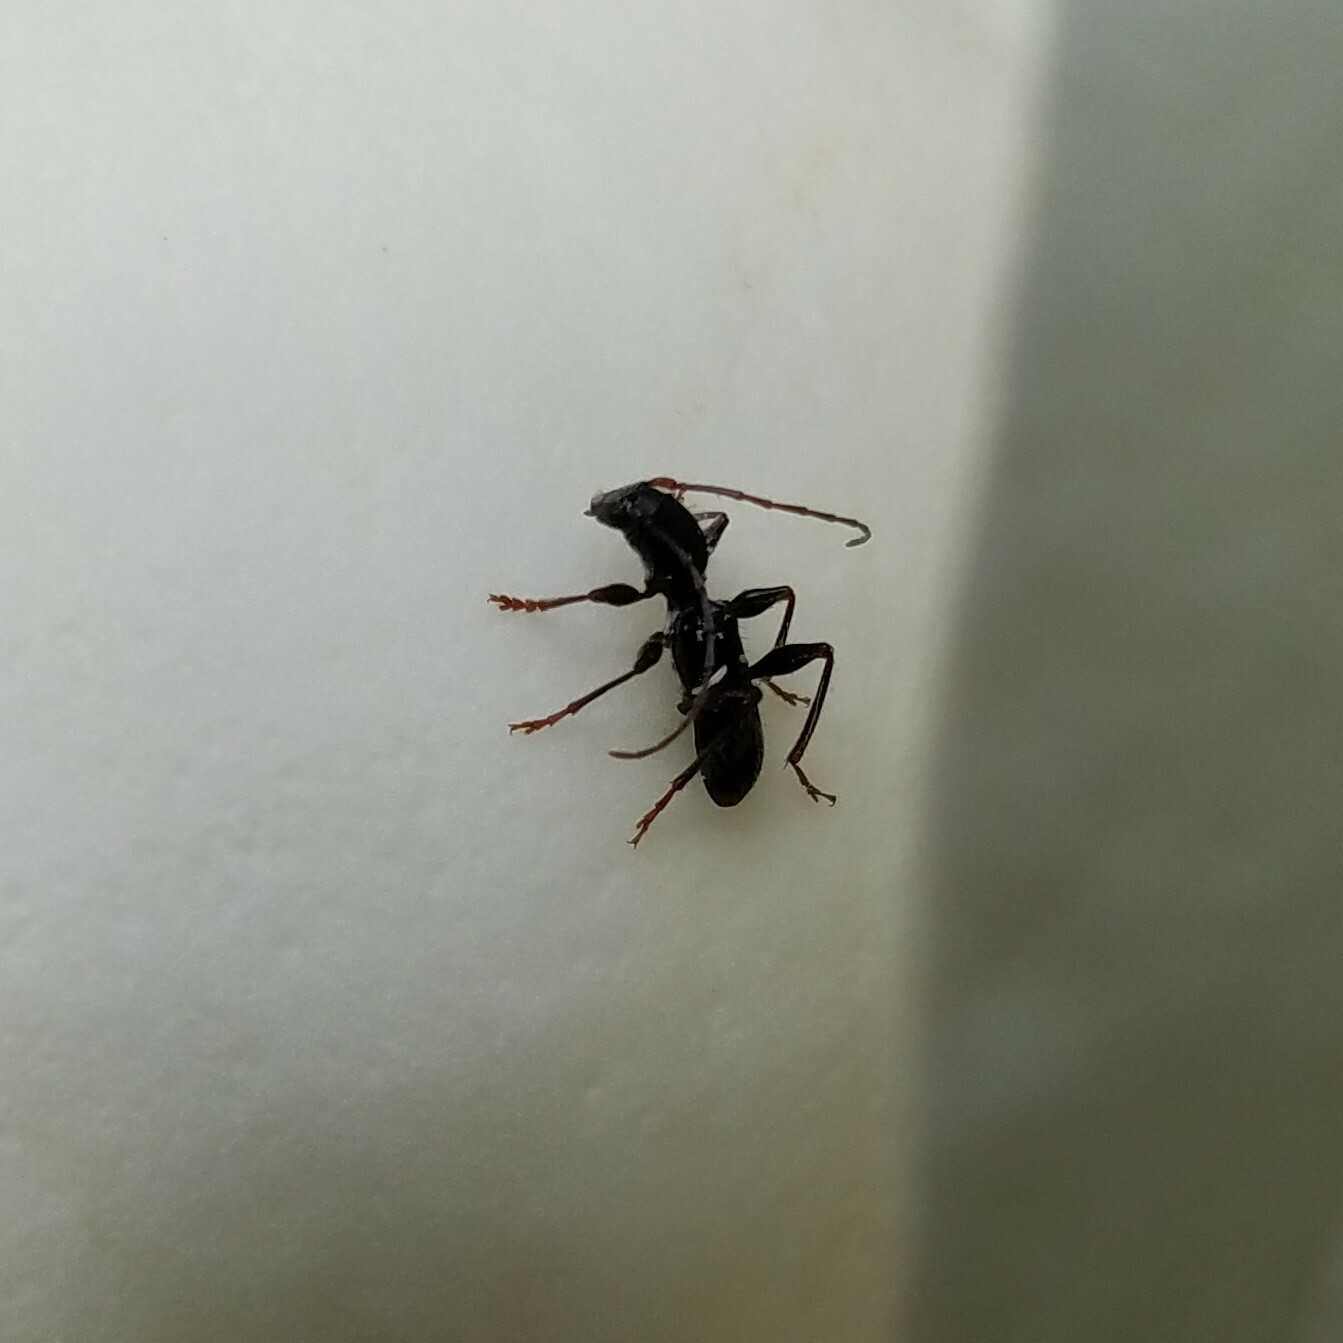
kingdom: Animalia
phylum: Arthropoda
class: Insecta
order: Coleoptera
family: Cerambycidae
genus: Euderces
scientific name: Euderces picipes
